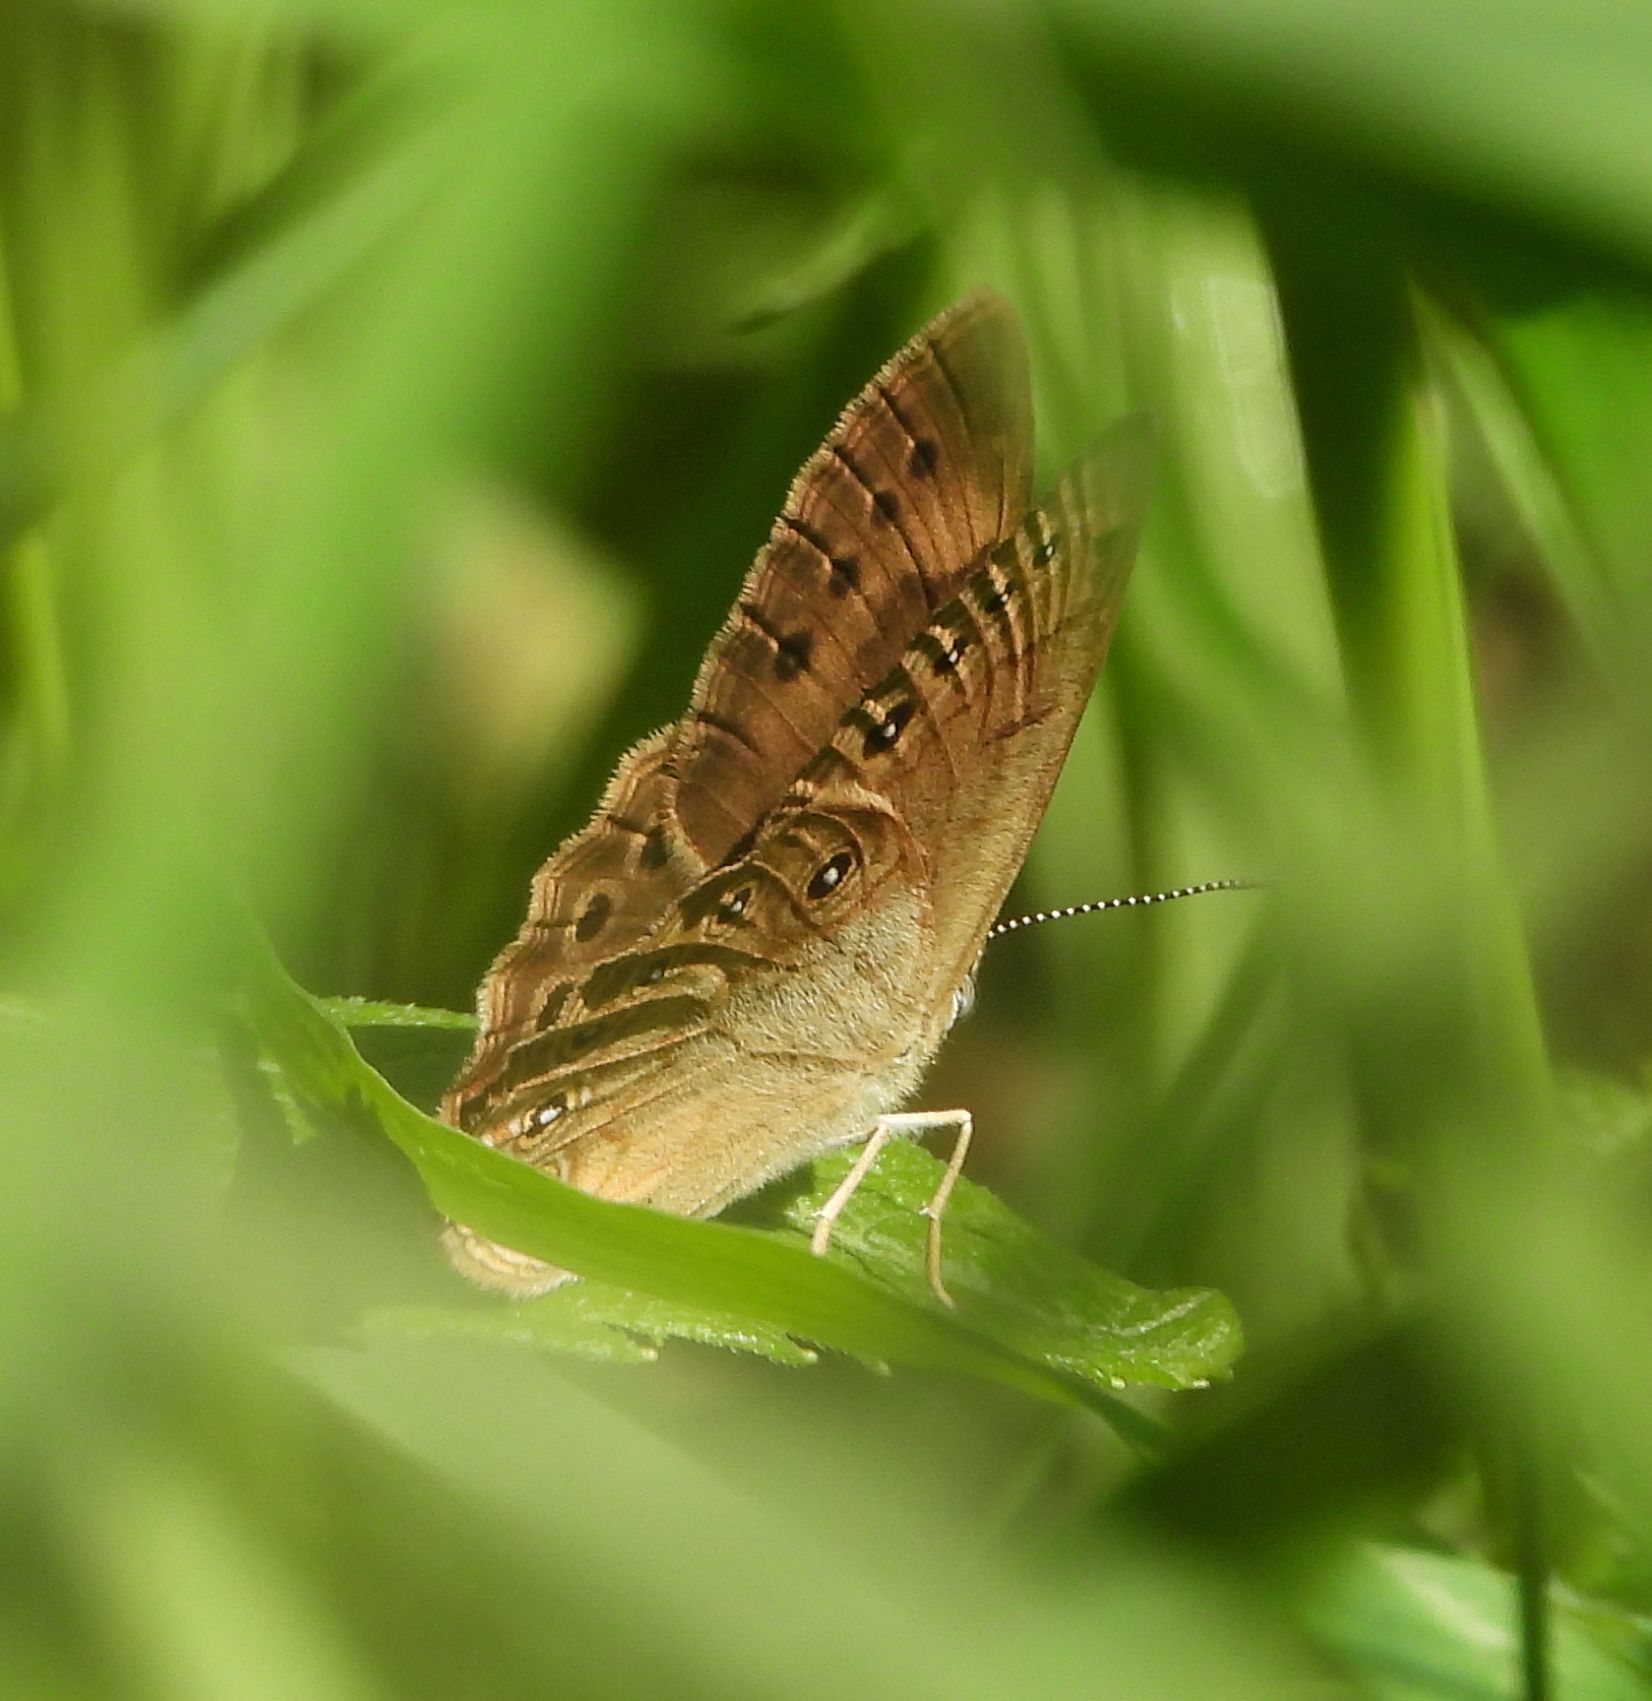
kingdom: Animalia
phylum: Arthropoda
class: Insecta
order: Lepidoptera
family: Nymphalidae
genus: Lethe
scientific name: Lethe eurydice
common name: Eyed brown
